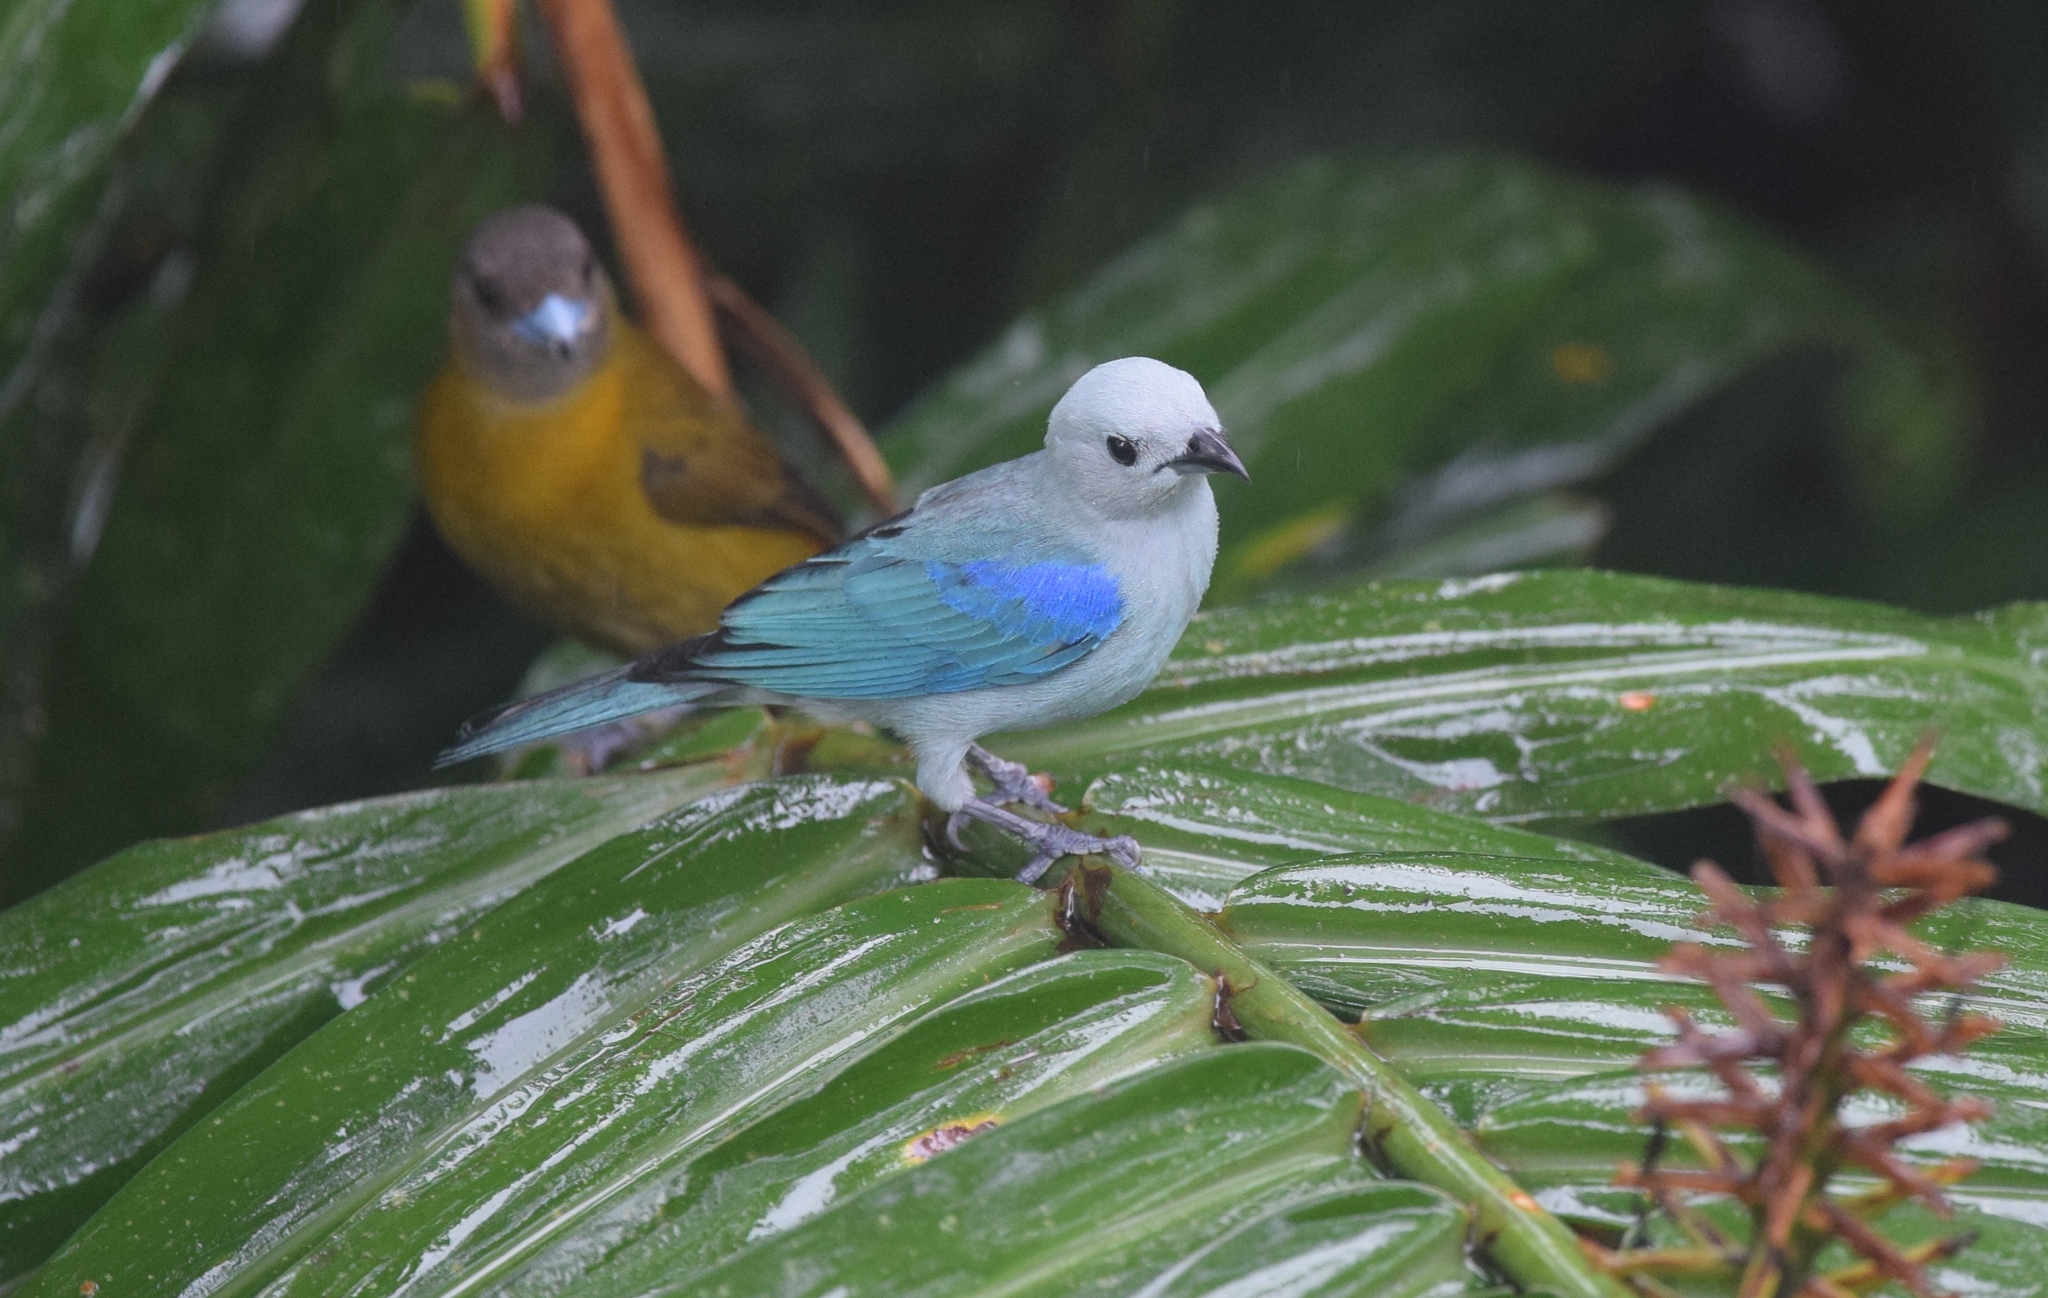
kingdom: Animalia
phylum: Chordata
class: Aves
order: Passeriformes
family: Thraupidae
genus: Thraupis
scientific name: Thraupis episcopus
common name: Blue-grey tanager
